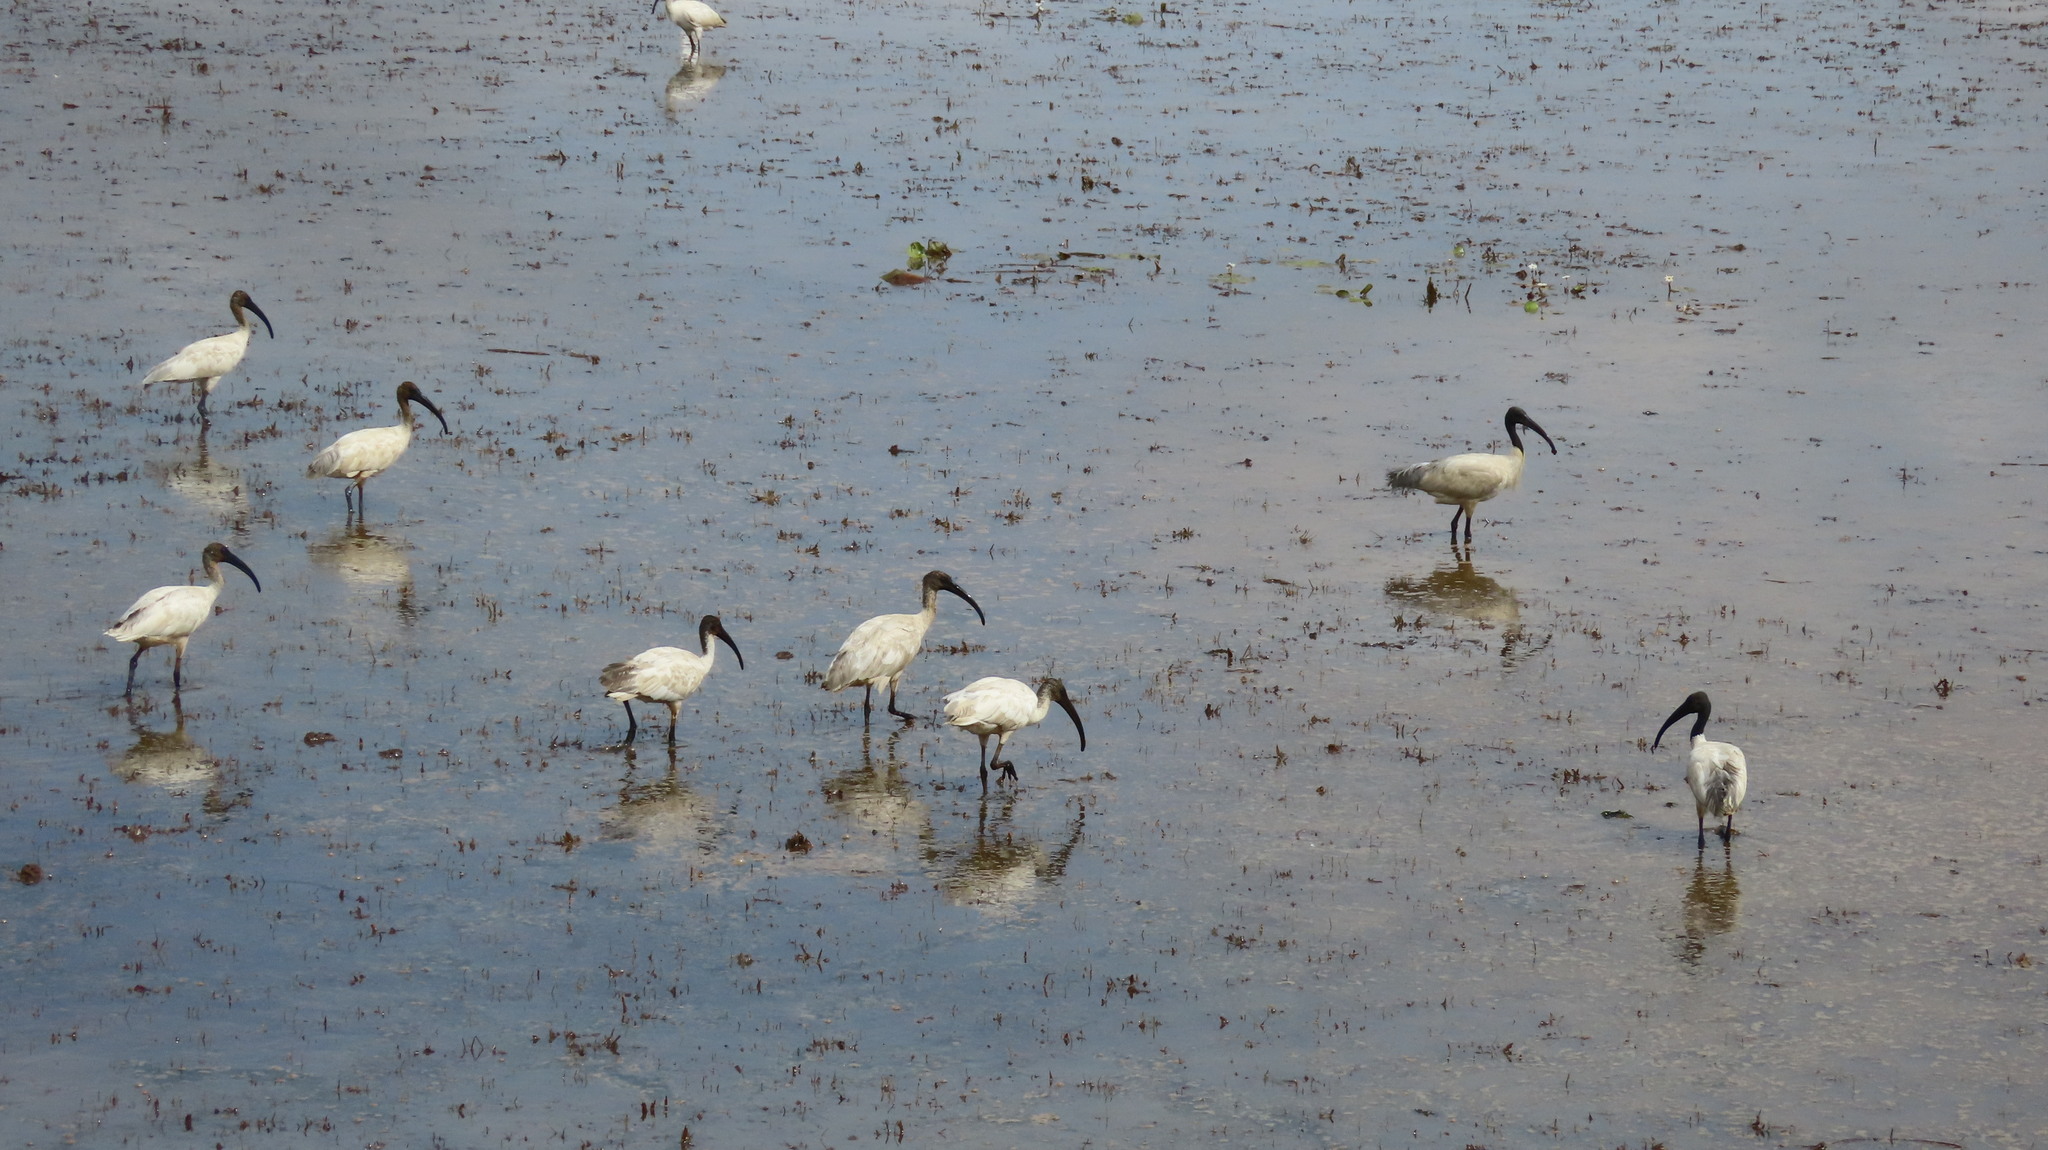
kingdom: Animalia
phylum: Chordata
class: Aves
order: Pelecaniformes
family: Threskiornithidae
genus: Threskiornis
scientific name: Threskiornis melanocephalus
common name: Black-headed ibis
